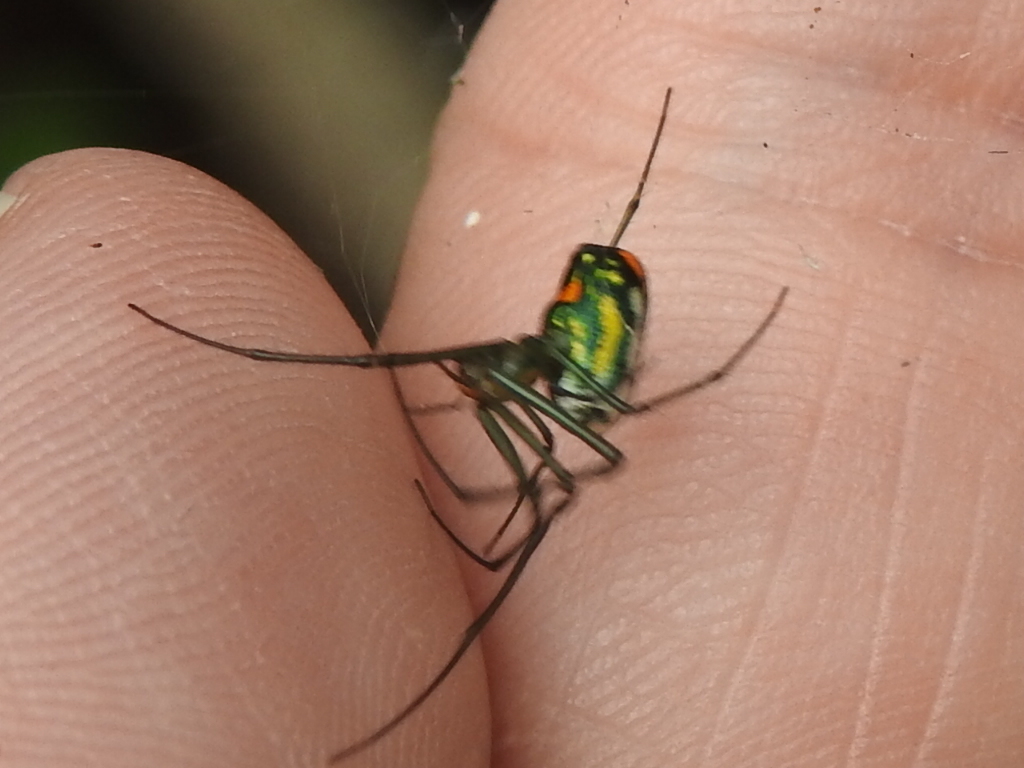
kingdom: Animalia
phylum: Arthropoda
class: Arachnida
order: Araneae
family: Tetragnathidae
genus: Leucauge
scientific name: Leucauge argyrobapta
